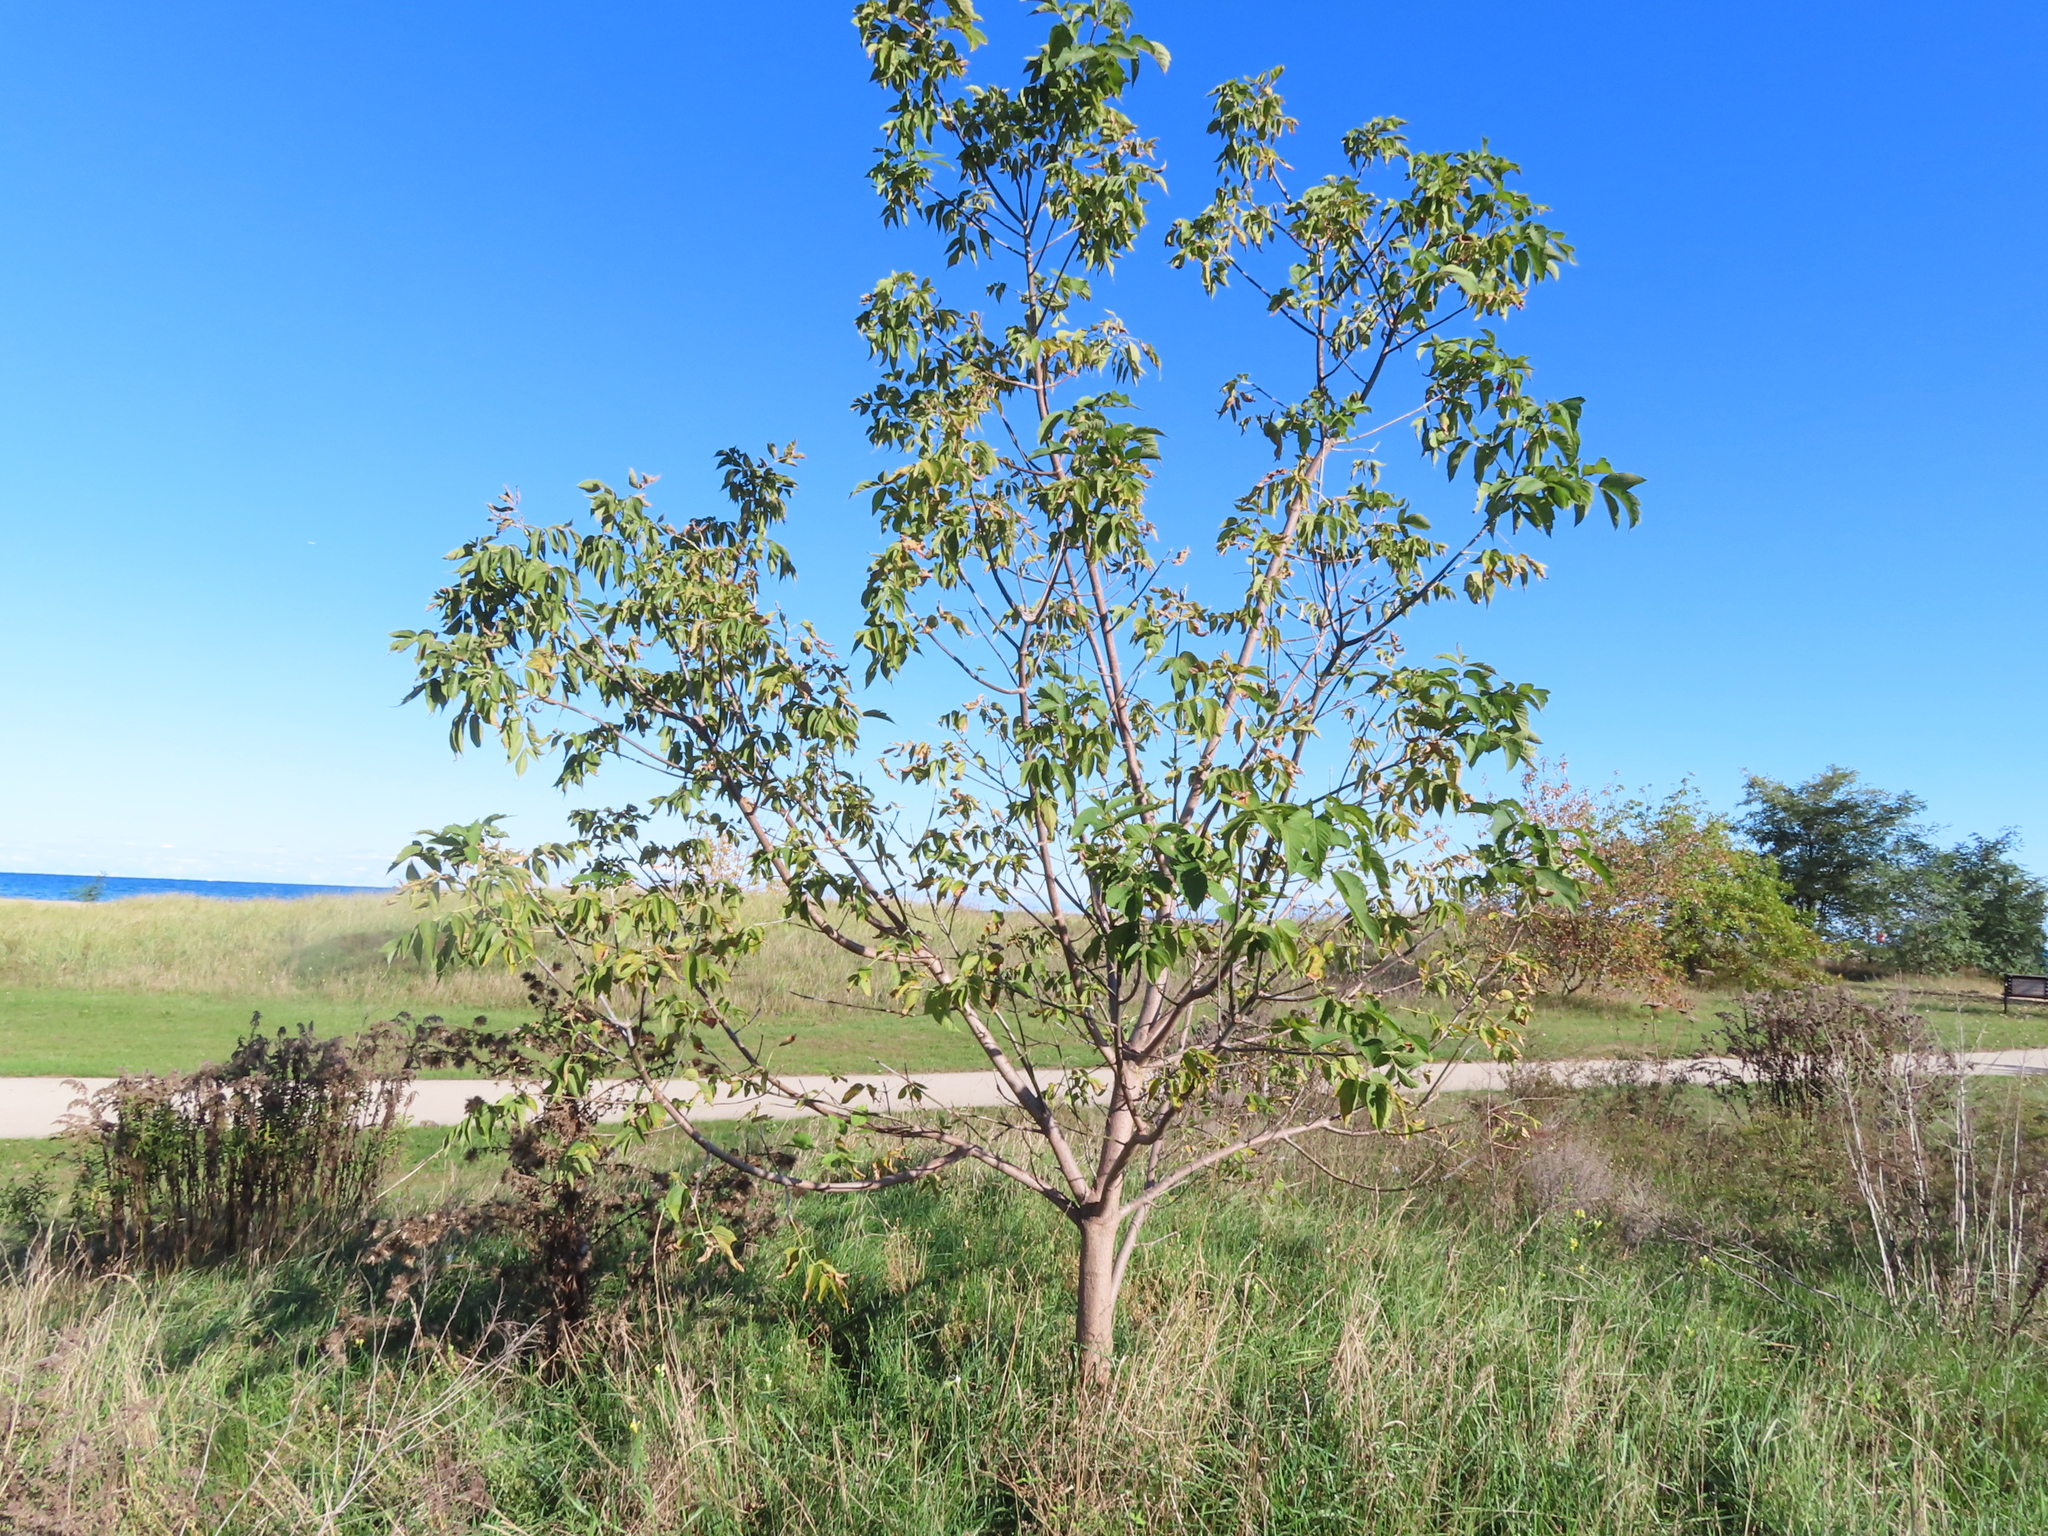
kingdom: Plantae
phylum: Tracheophyta
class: Magnoliopsida
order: Sapindales
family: Sapindaceae
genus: Acer
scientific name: Acer negundo
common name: Ashleaf maple
